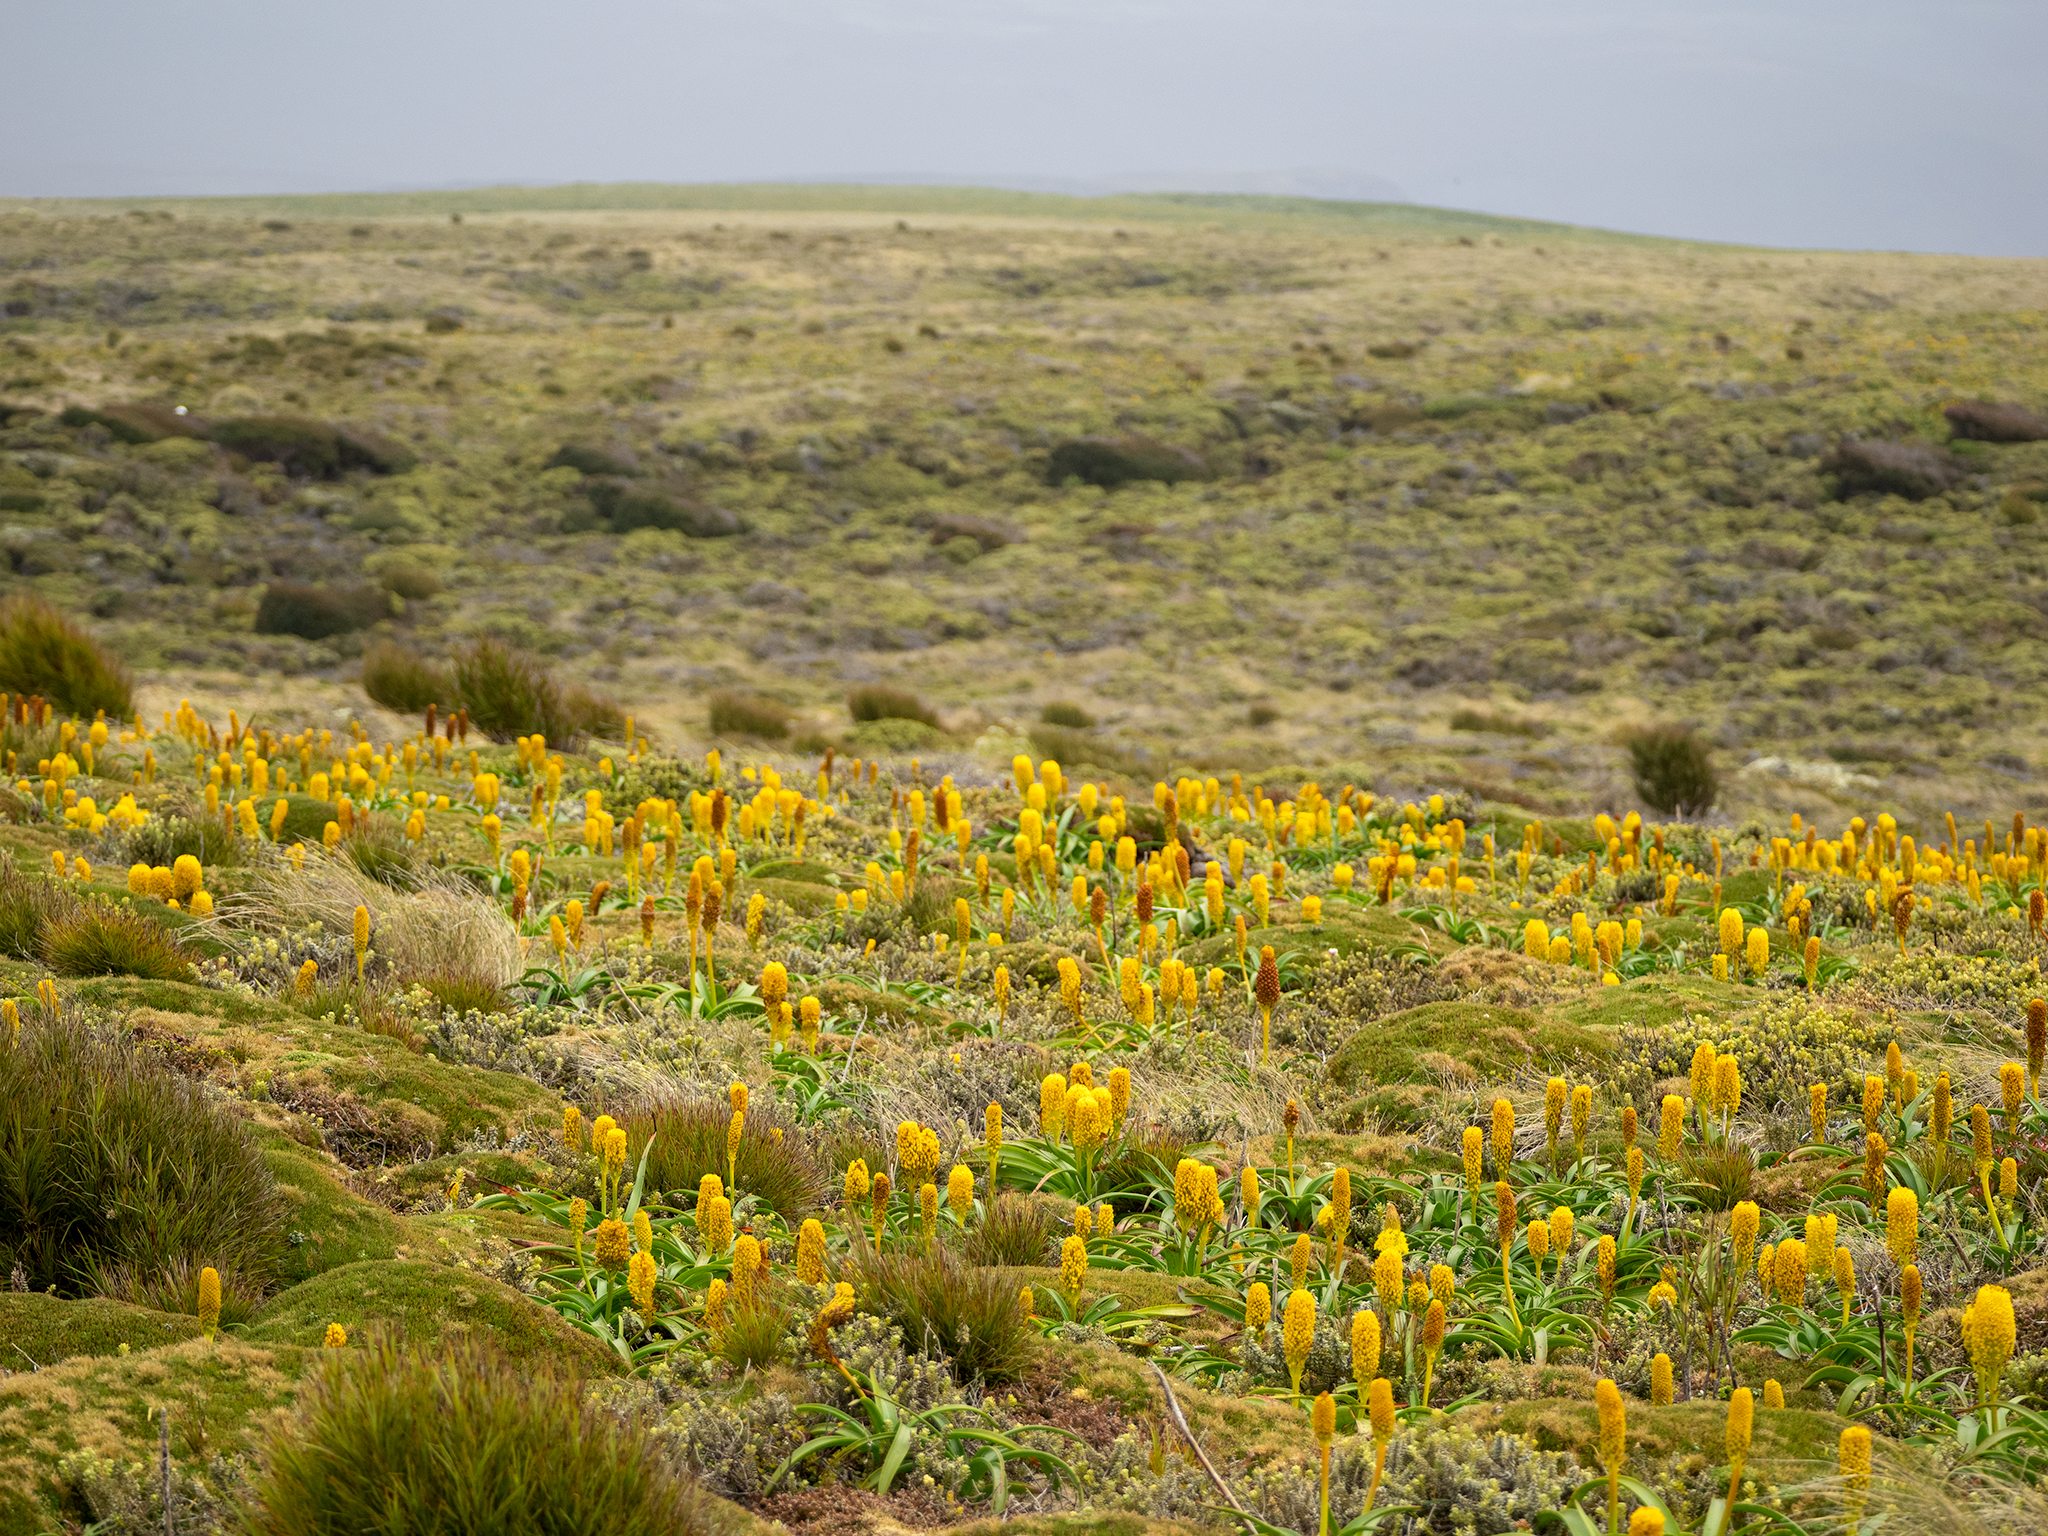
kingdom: Plantae
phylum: Tracheophyta
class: Liliopsida
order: Asparagales
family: Asphodelaceae
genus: Bulbinella
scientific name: Bulbinella rossii
